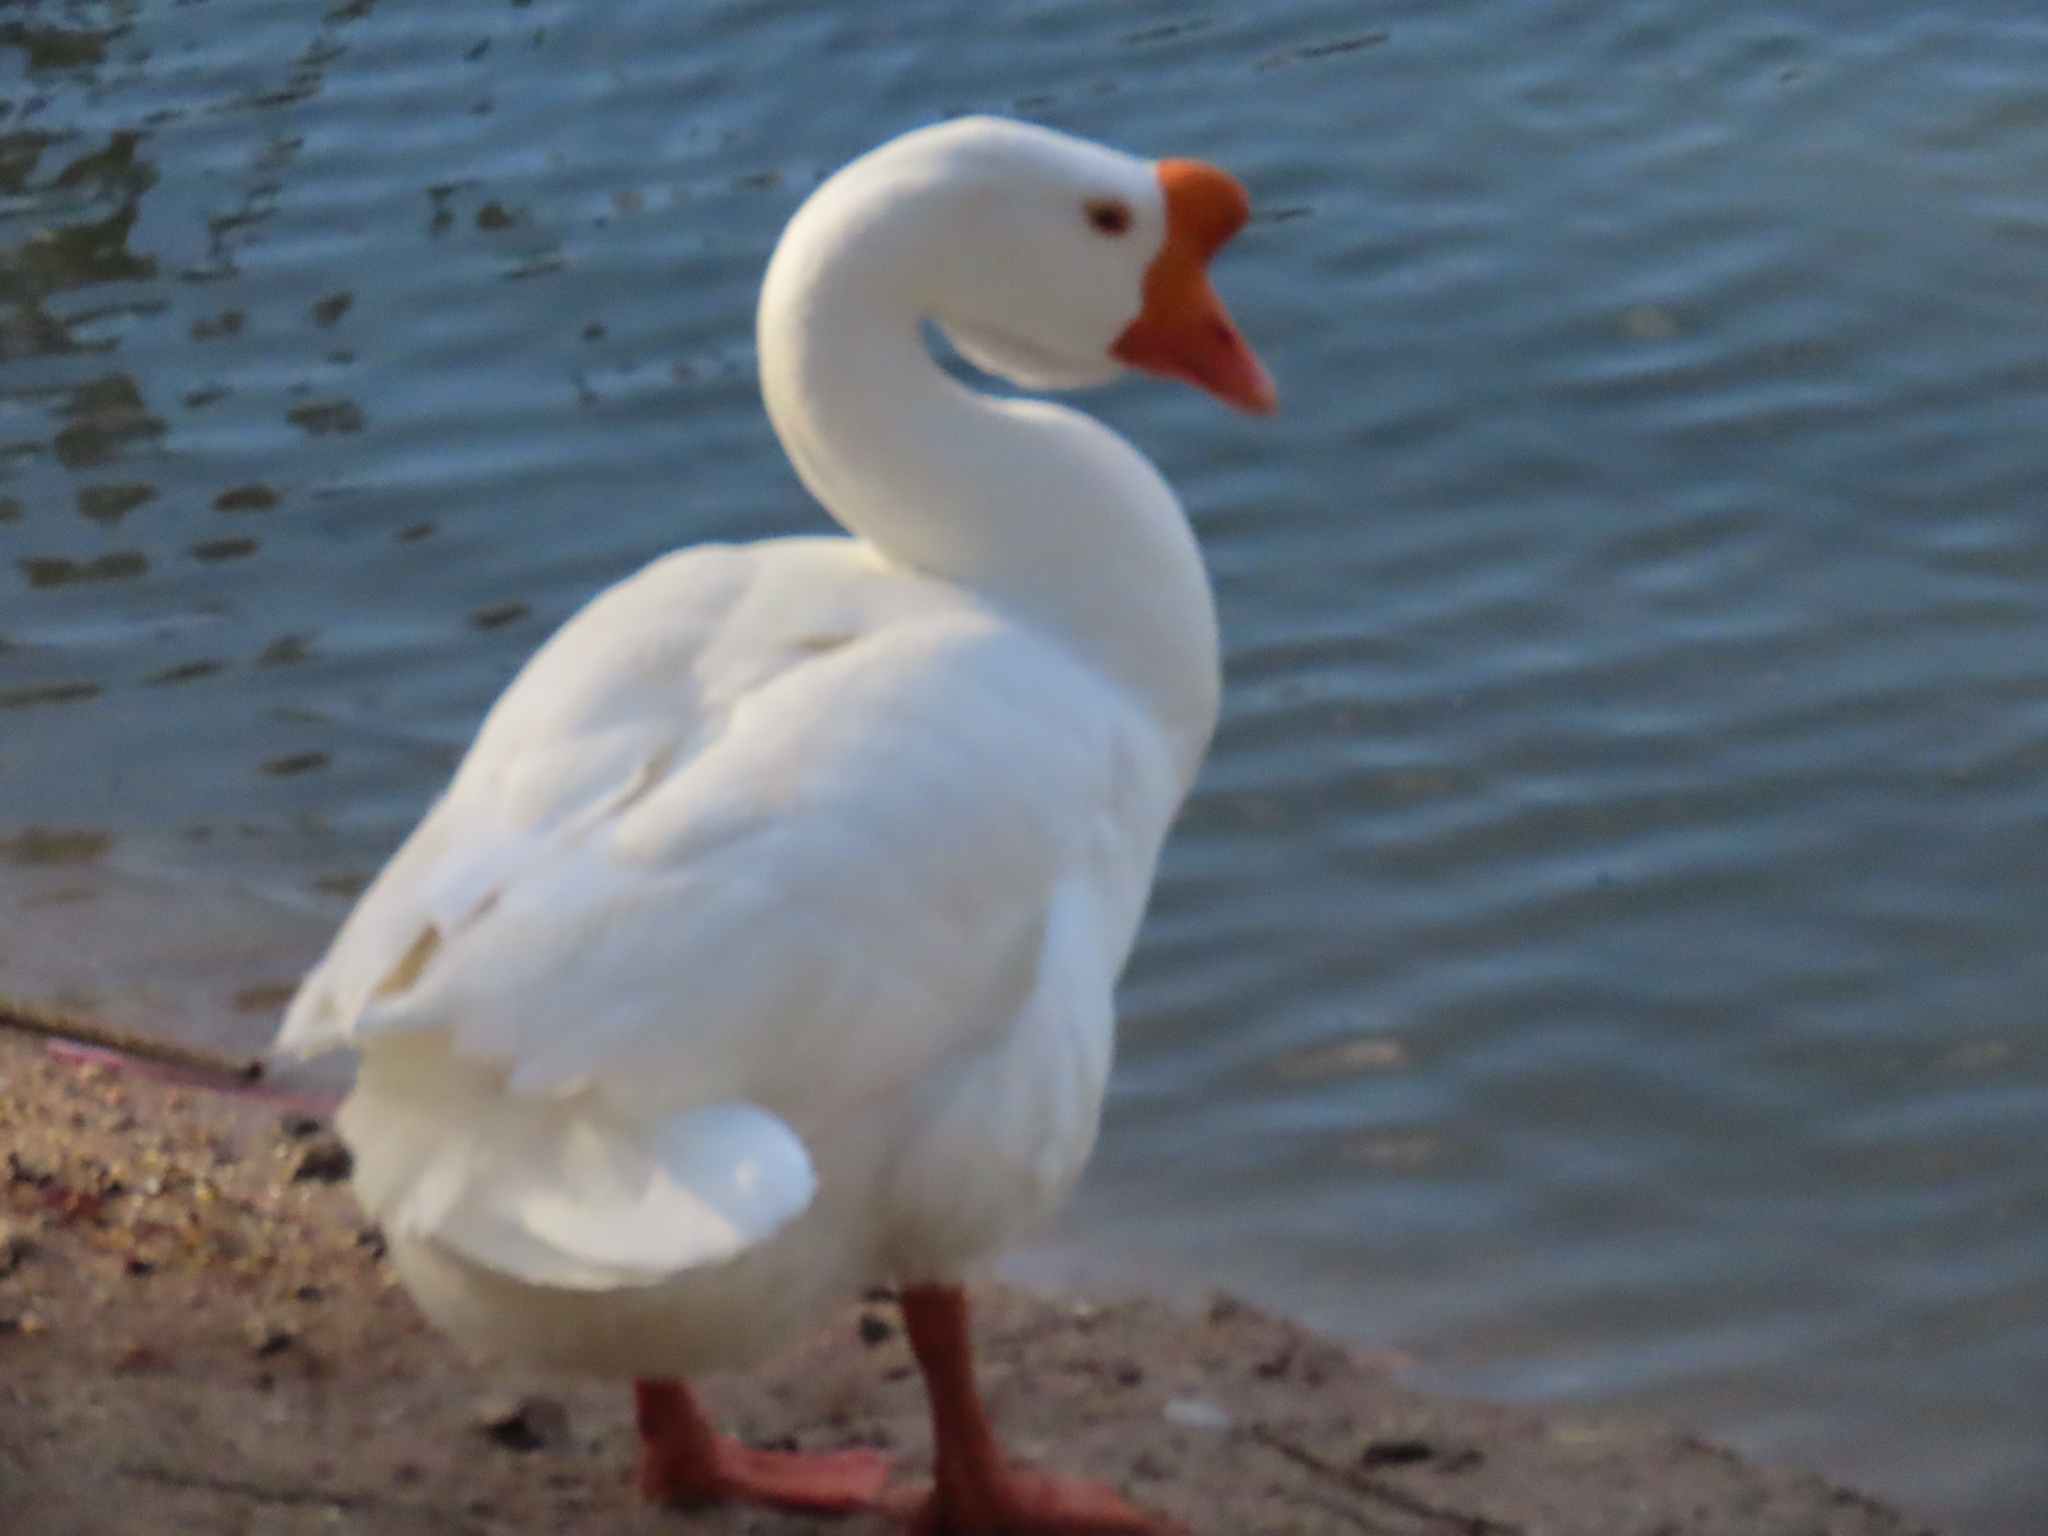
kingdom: Animalia
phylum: Chordata
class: Aves
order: Anseriformes
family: Anatidae
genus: Anser
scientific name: Anser cygnoides
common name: Swan goose
